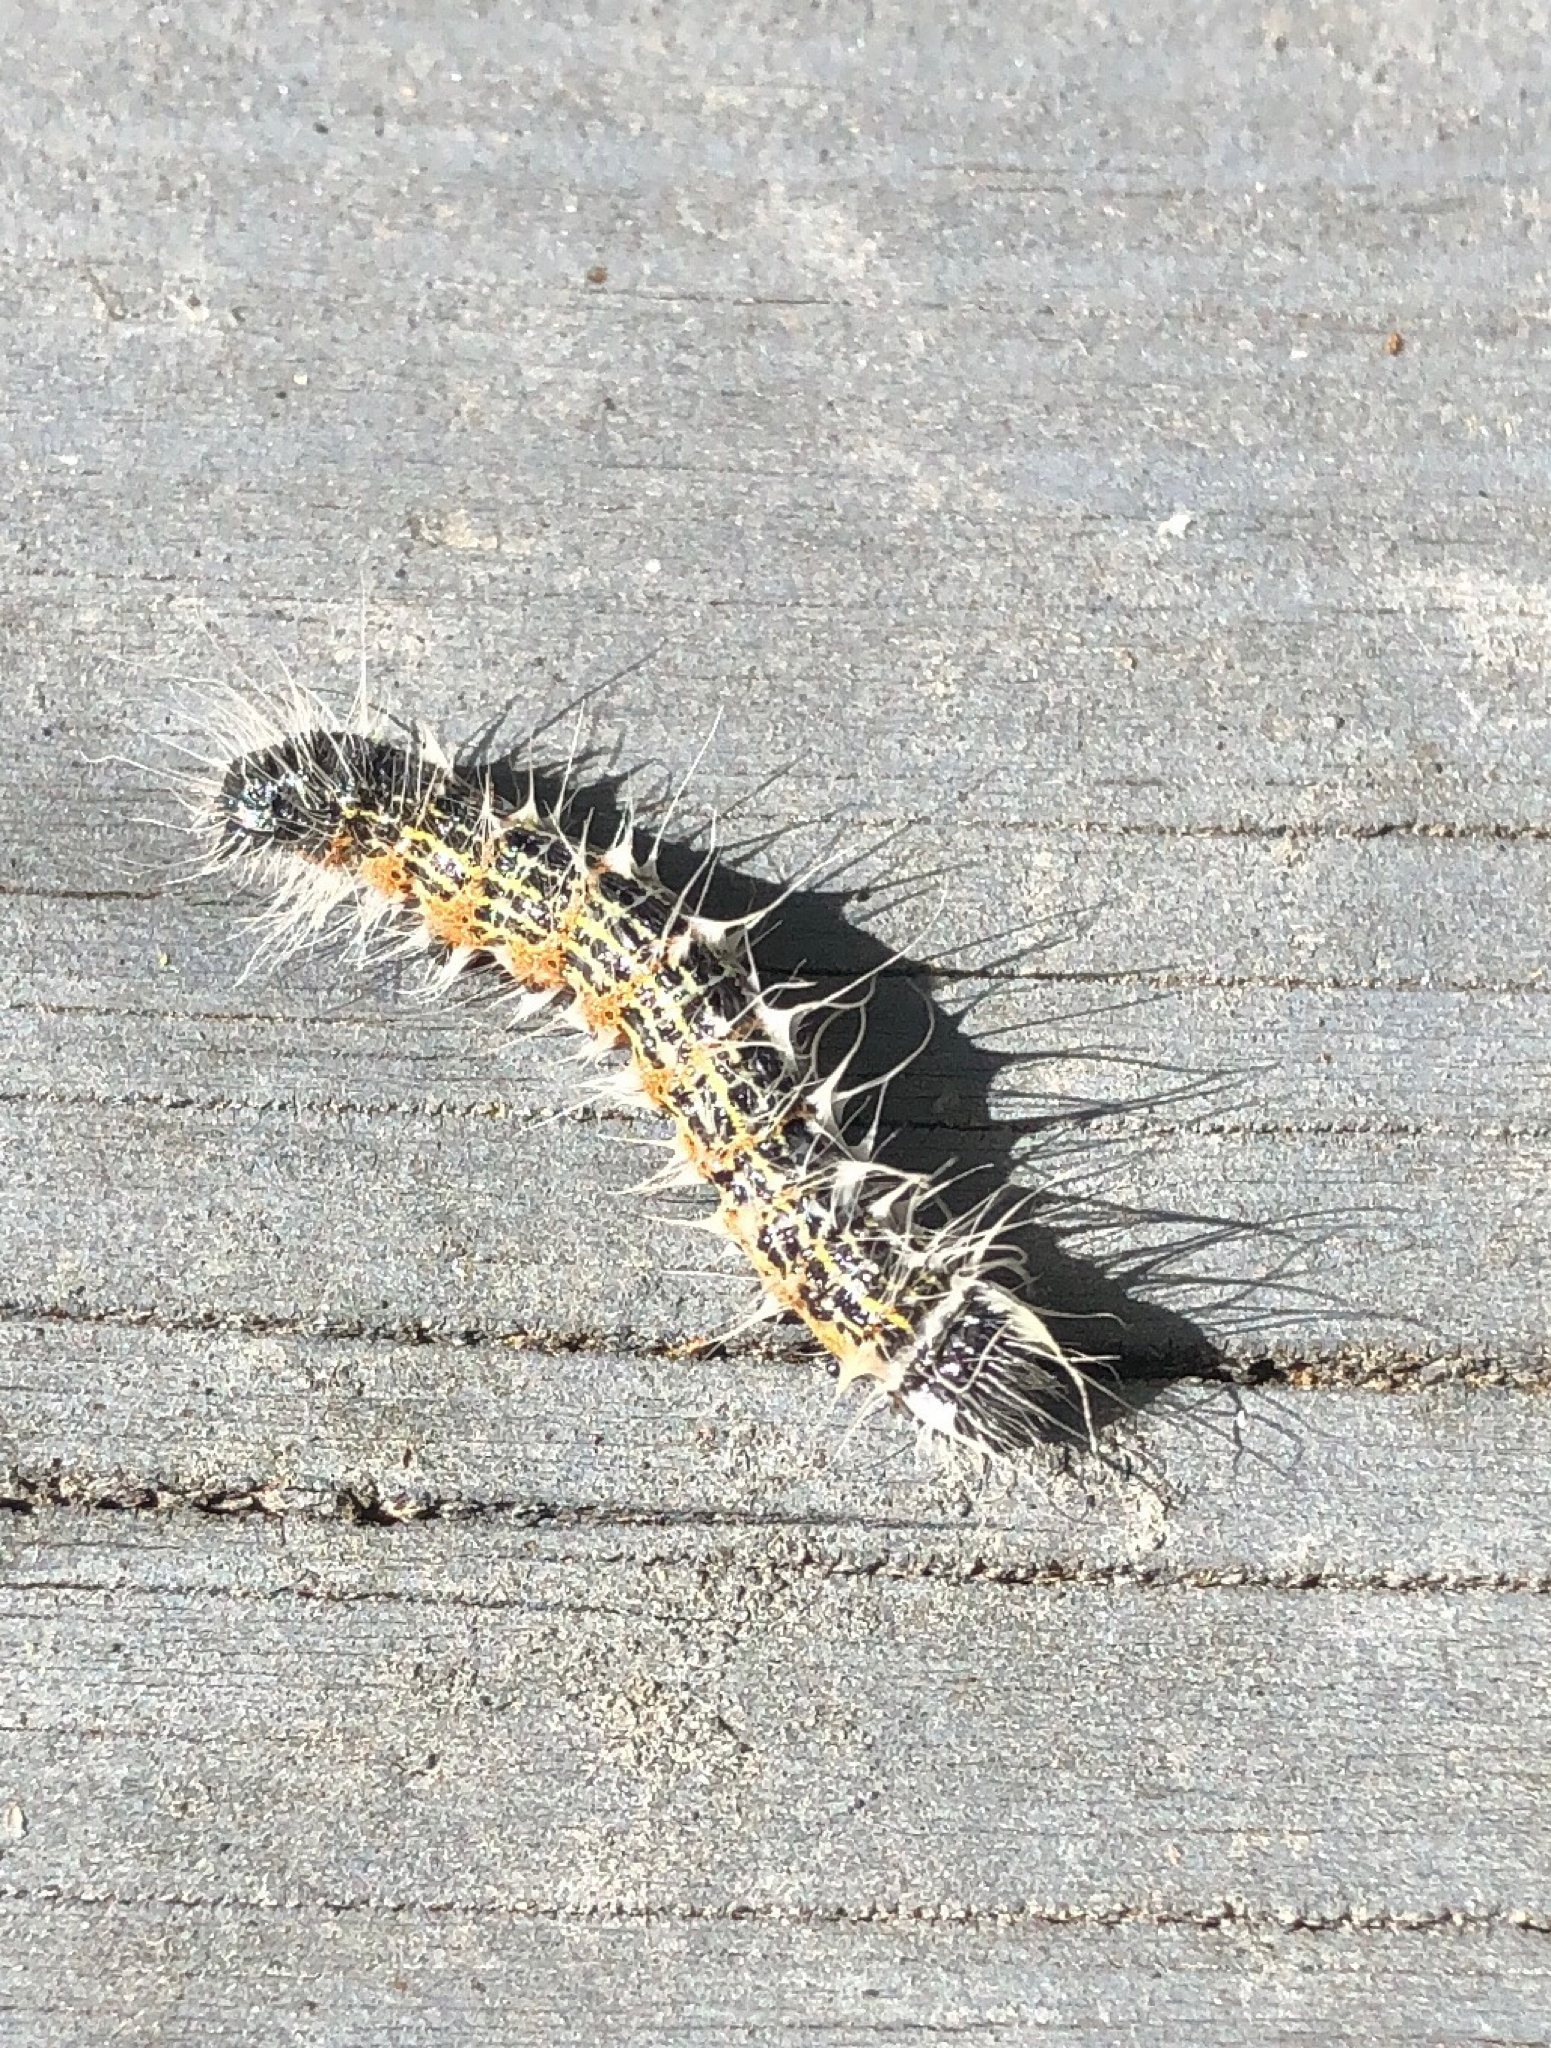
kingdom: Animalia
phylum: Arthropoda
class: Insecta
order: Lepidoptera
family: Notodontidae
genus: Phalera
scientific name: Phalera bucephala
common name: Buff-tip
